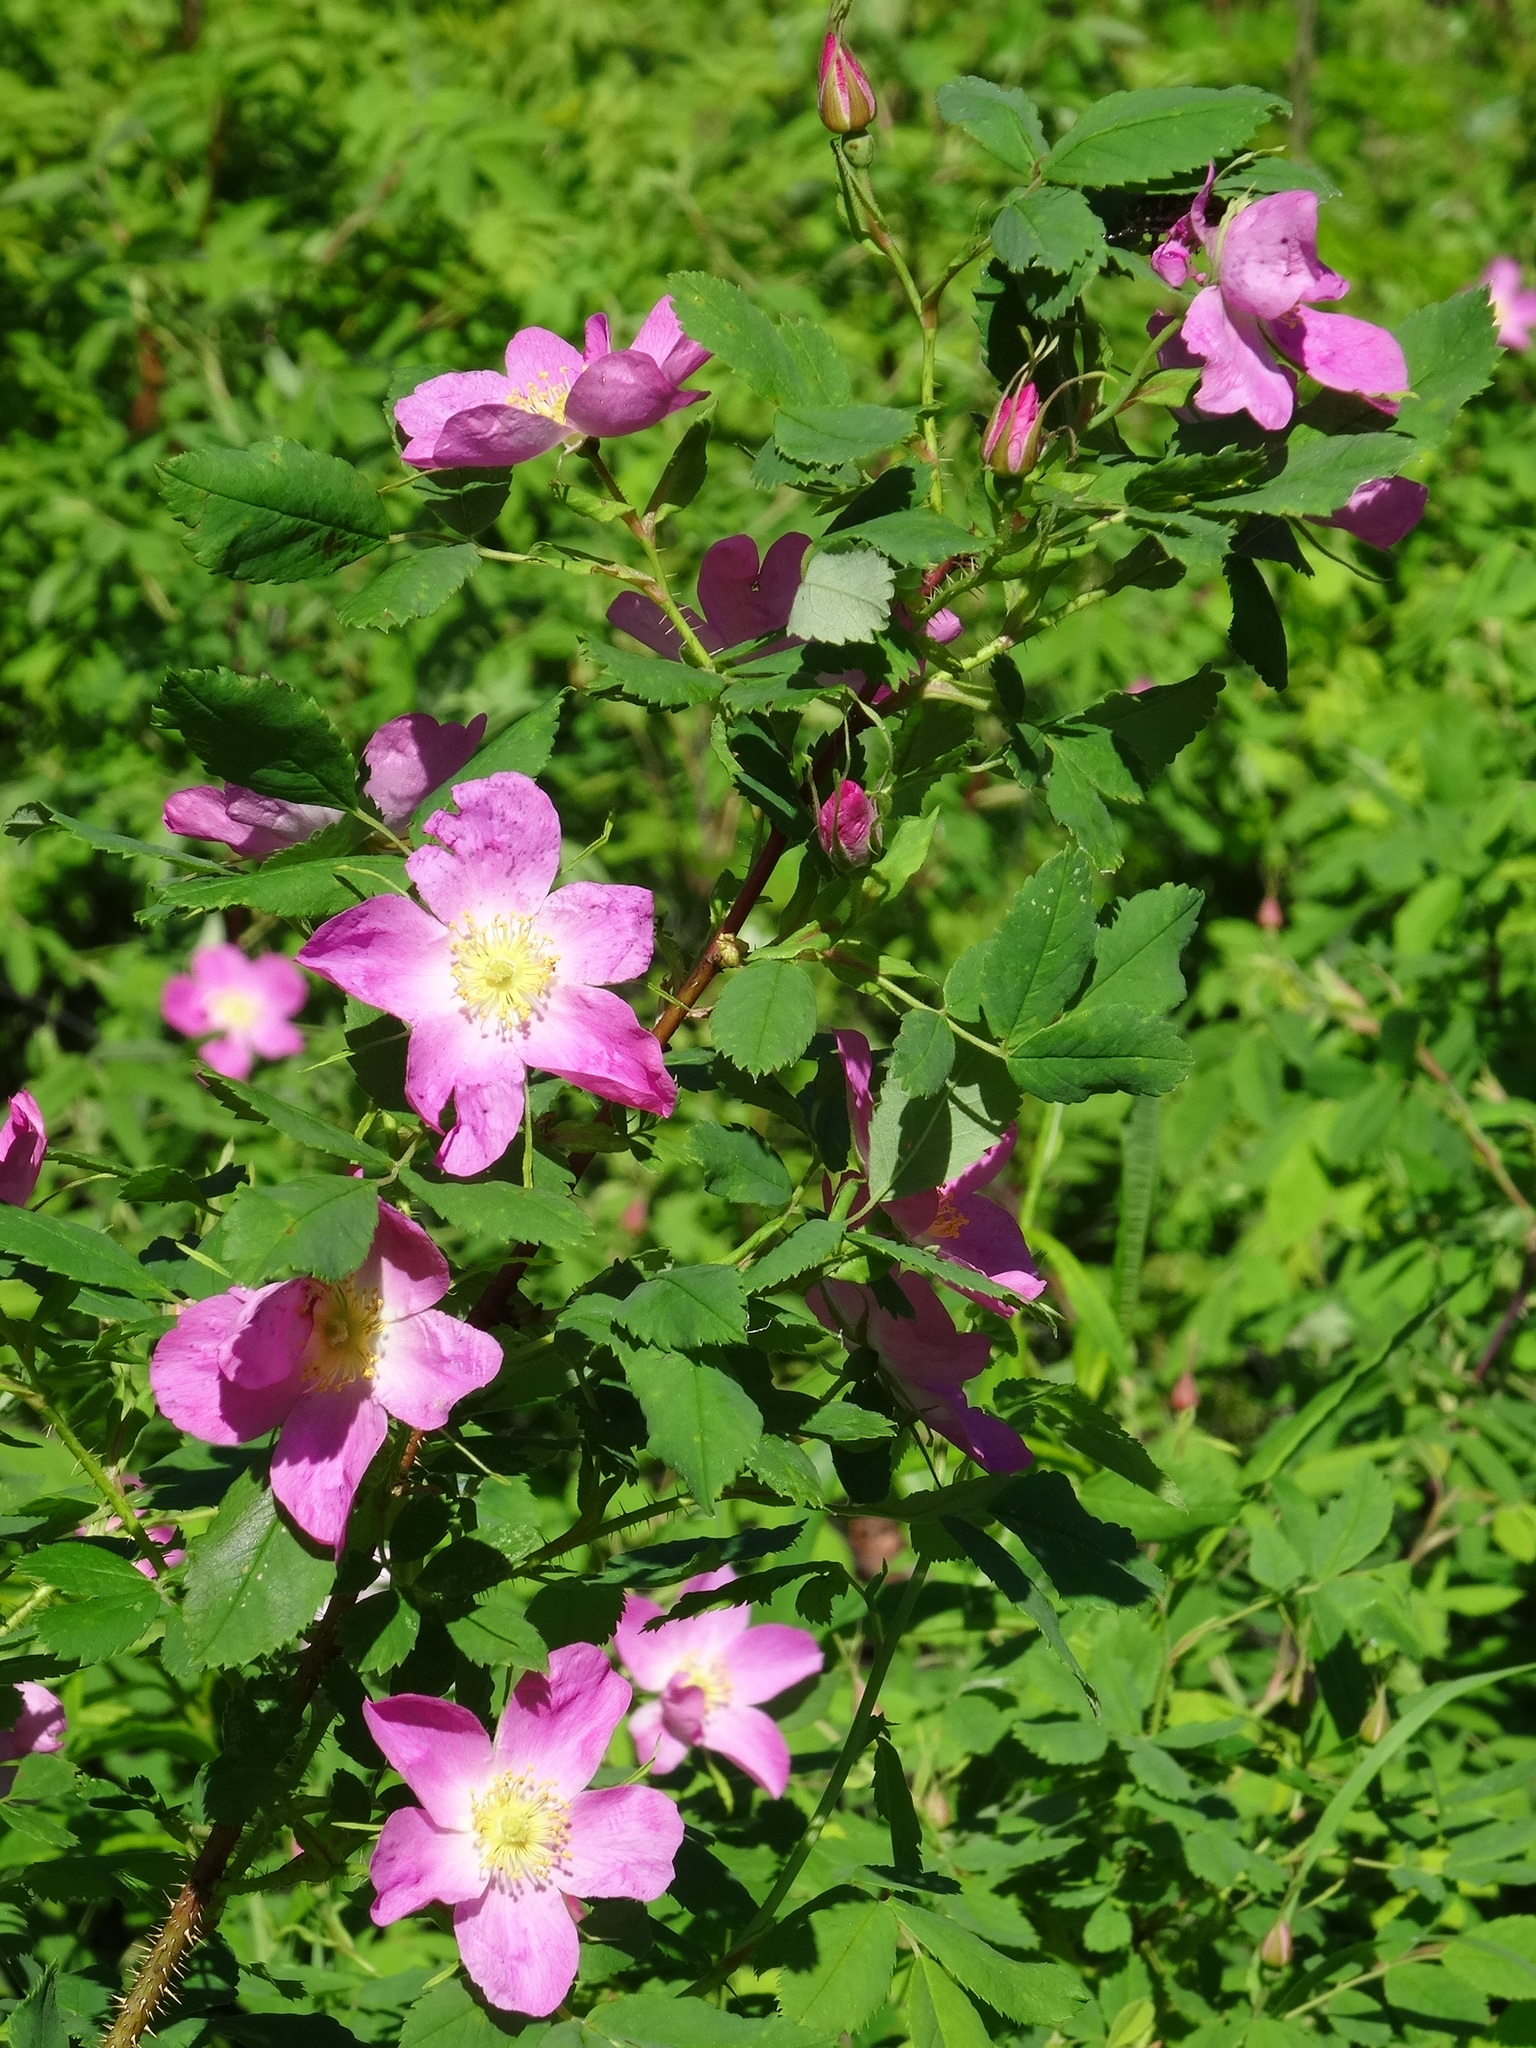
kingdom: Plantae
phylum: Tracheophyta
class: Magnoliopsida
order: Rosales
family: Rosaceae
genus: Rosa
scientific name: Rosa acicularis
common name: Prickly rose
